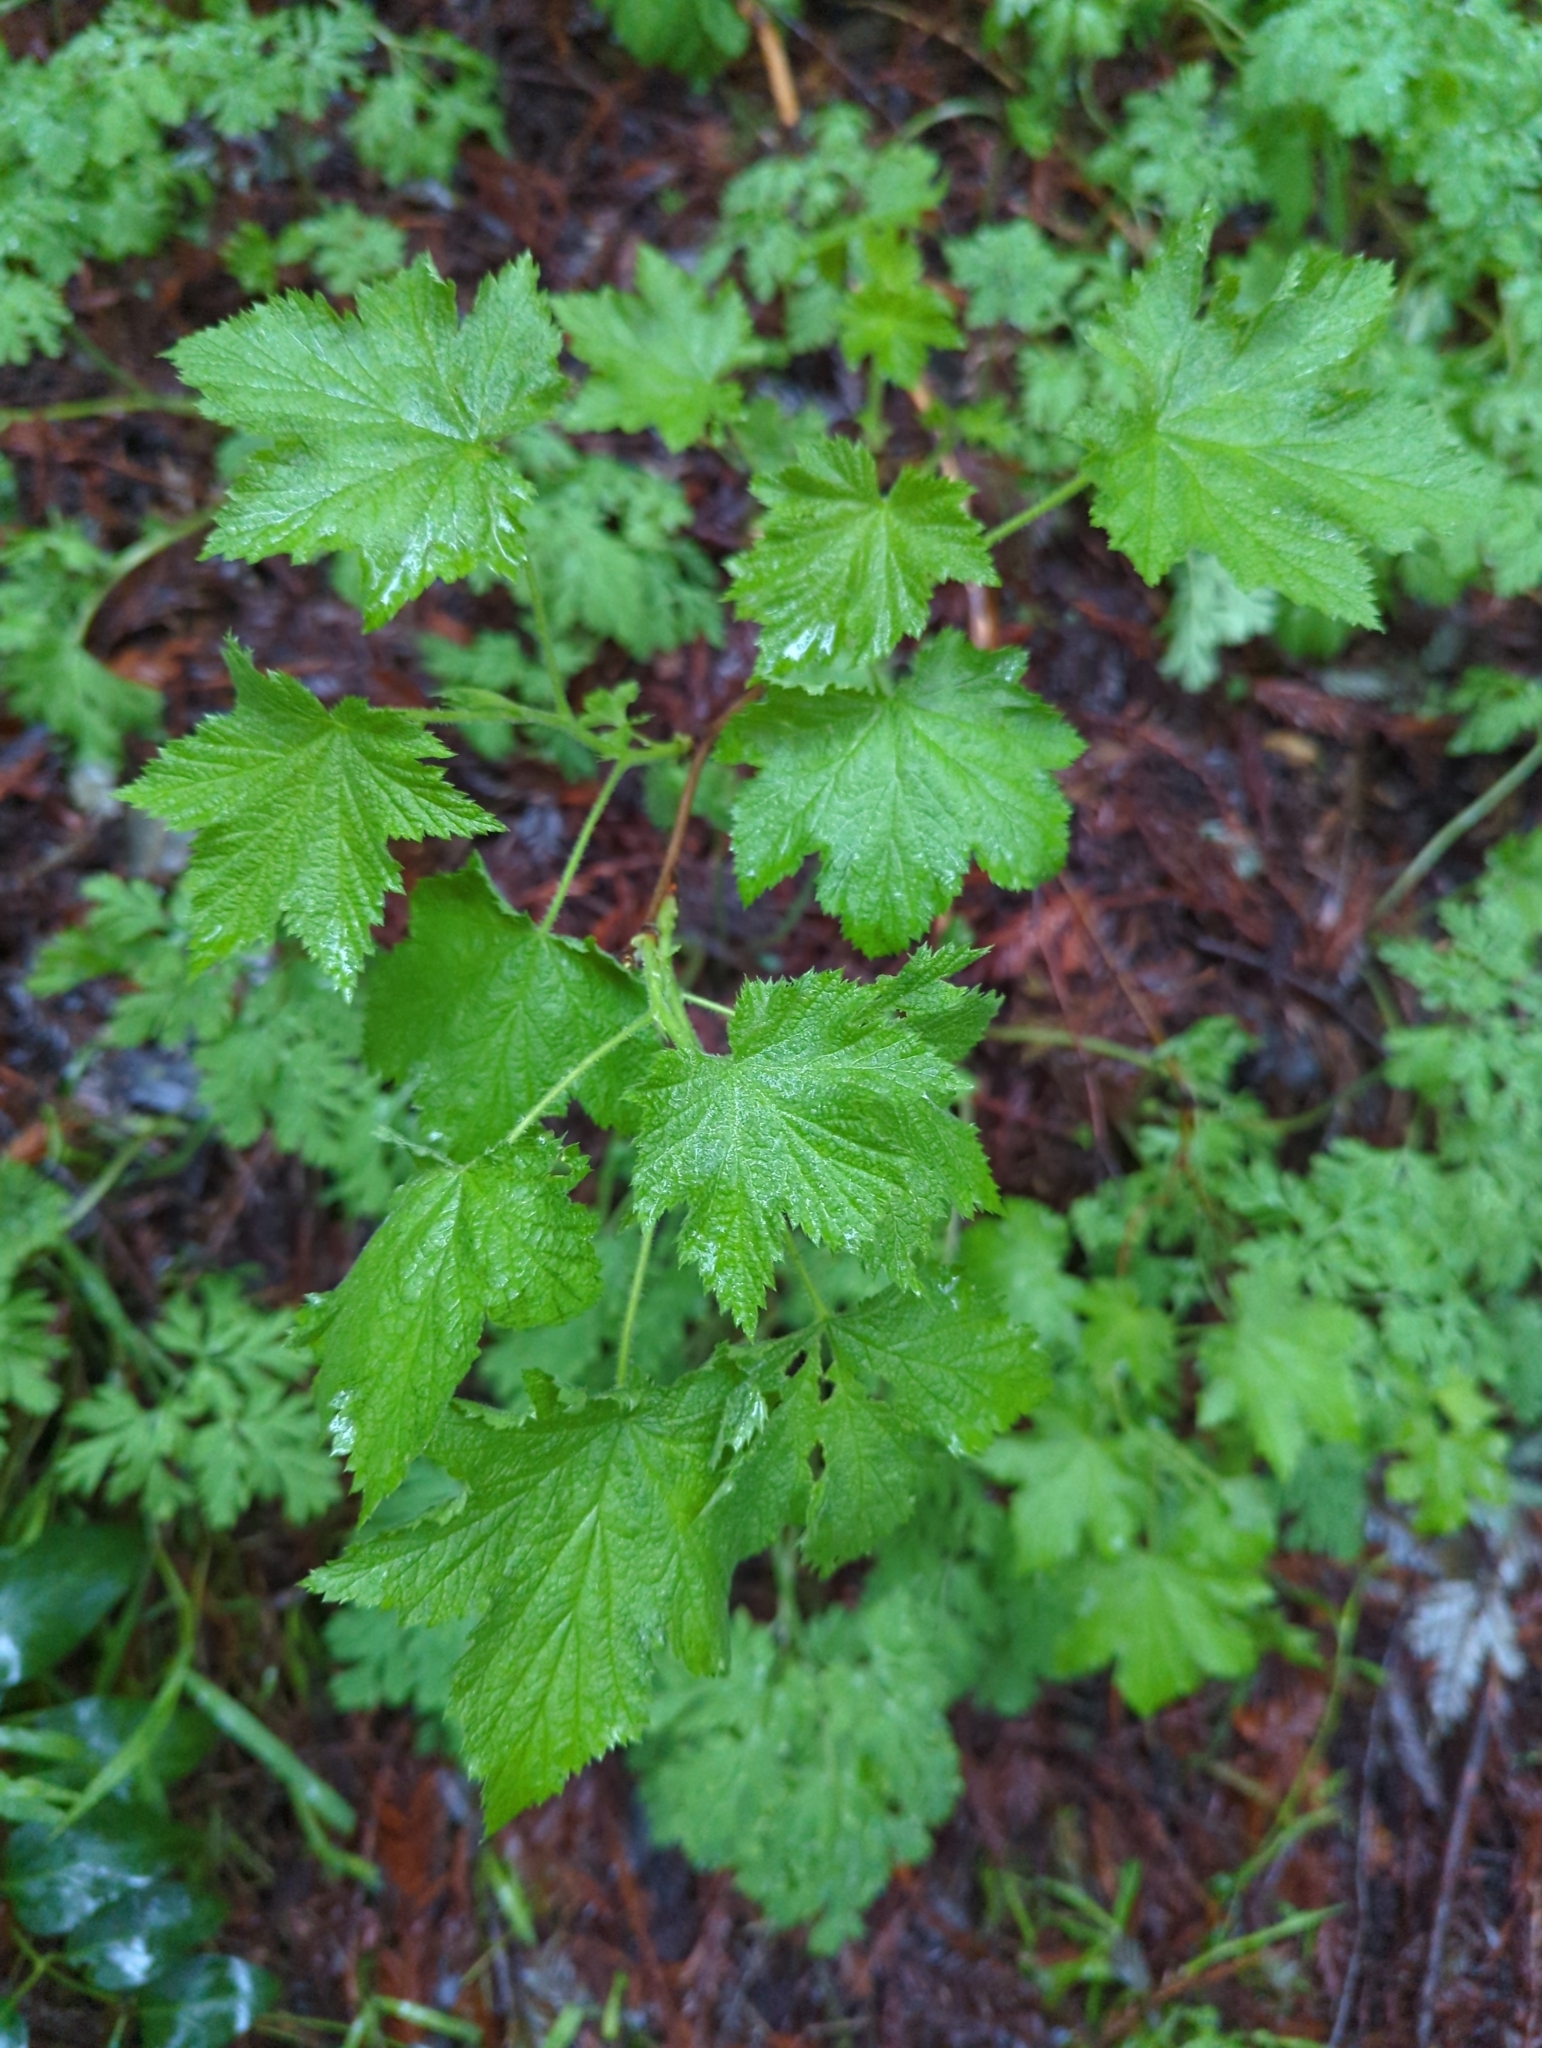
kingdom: Plantae
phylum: Tracheophyta
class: Magnoliopsida
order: Rosales
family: Rosaceae
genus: Rubus
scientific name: Rubus parviflorus
